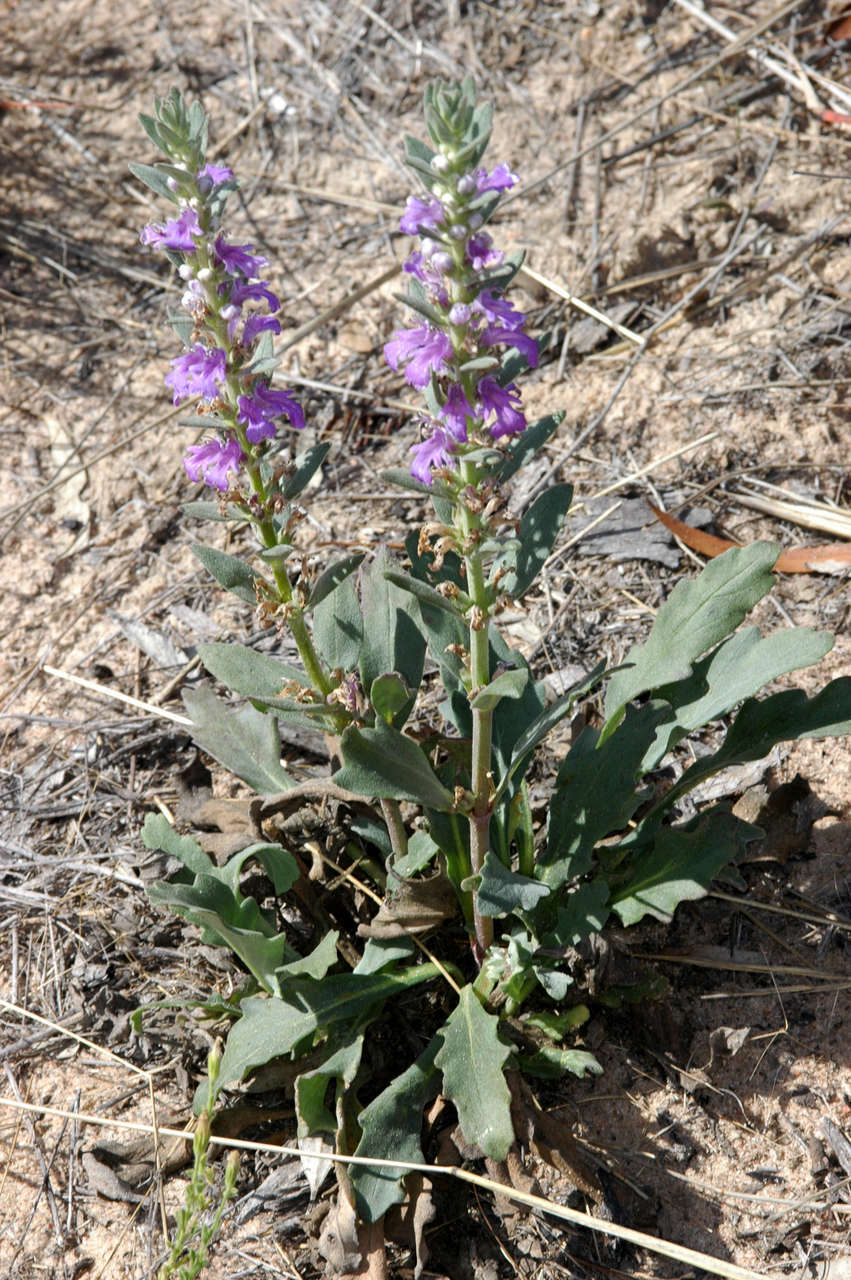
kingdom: Plantae
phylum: Tracheophyta
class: Magnoliopsida
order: Lamiales
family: Lamiaceae
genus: Ajuga
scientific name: Ajuga australis
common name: Australian bugle
